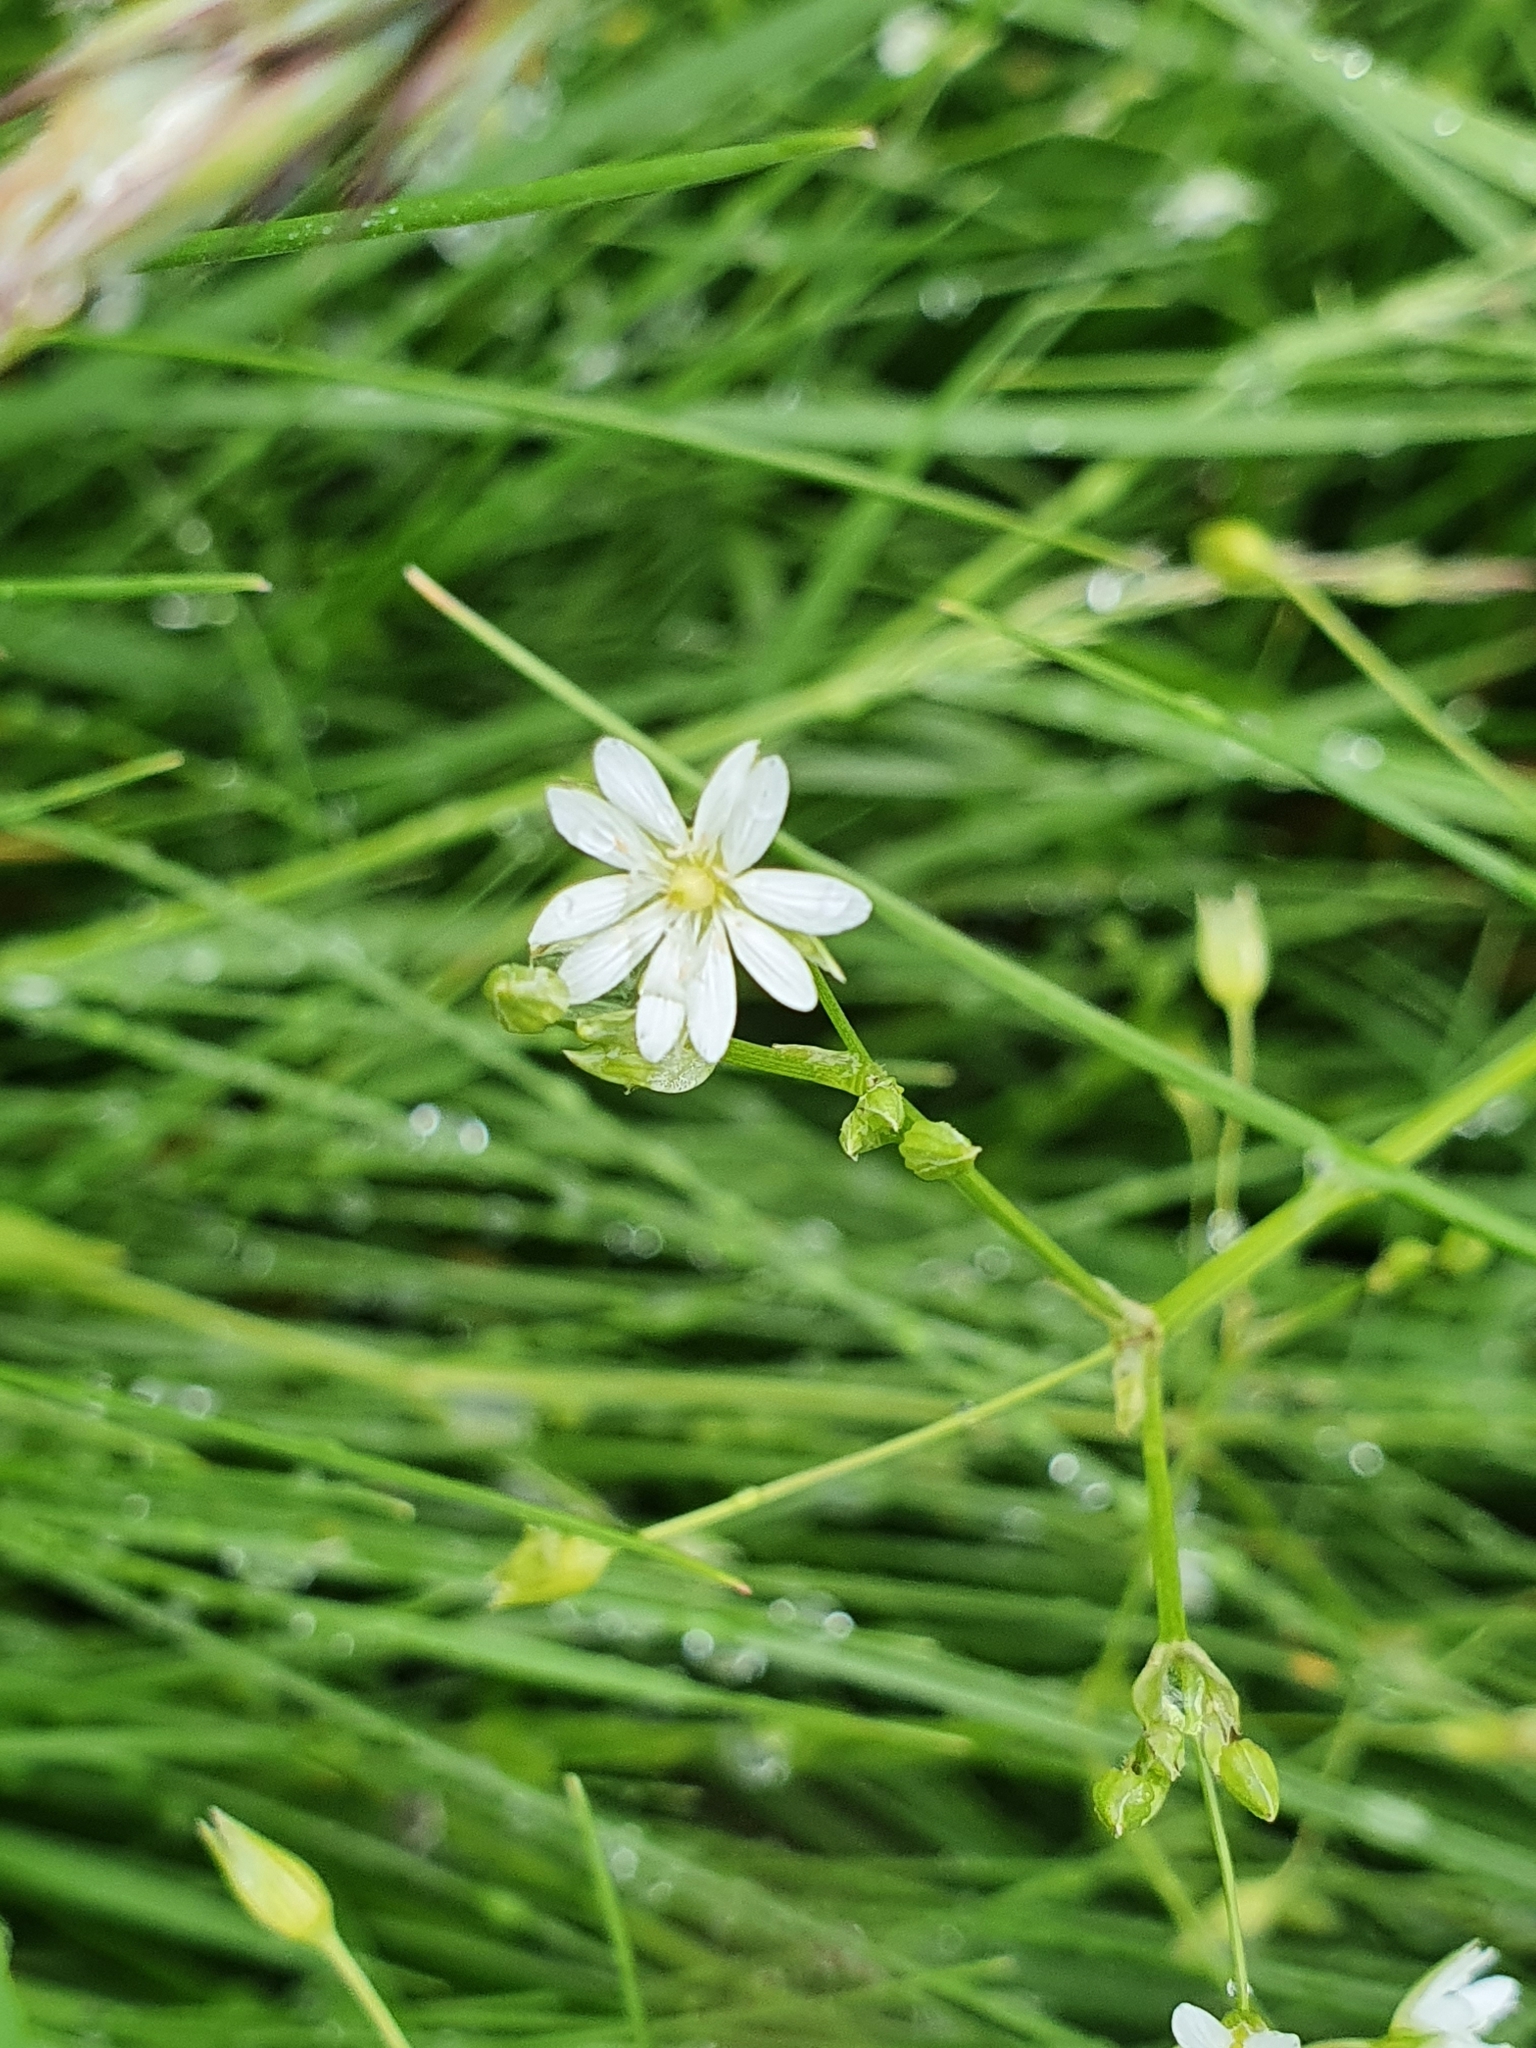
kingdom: Plantae
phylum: Tracheophyta
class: Magnoliopsida
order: Caryophyllales
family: Caryophyllaceae
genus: Stellaria
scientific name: Stellaria graminea
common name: Grass-like starwort
